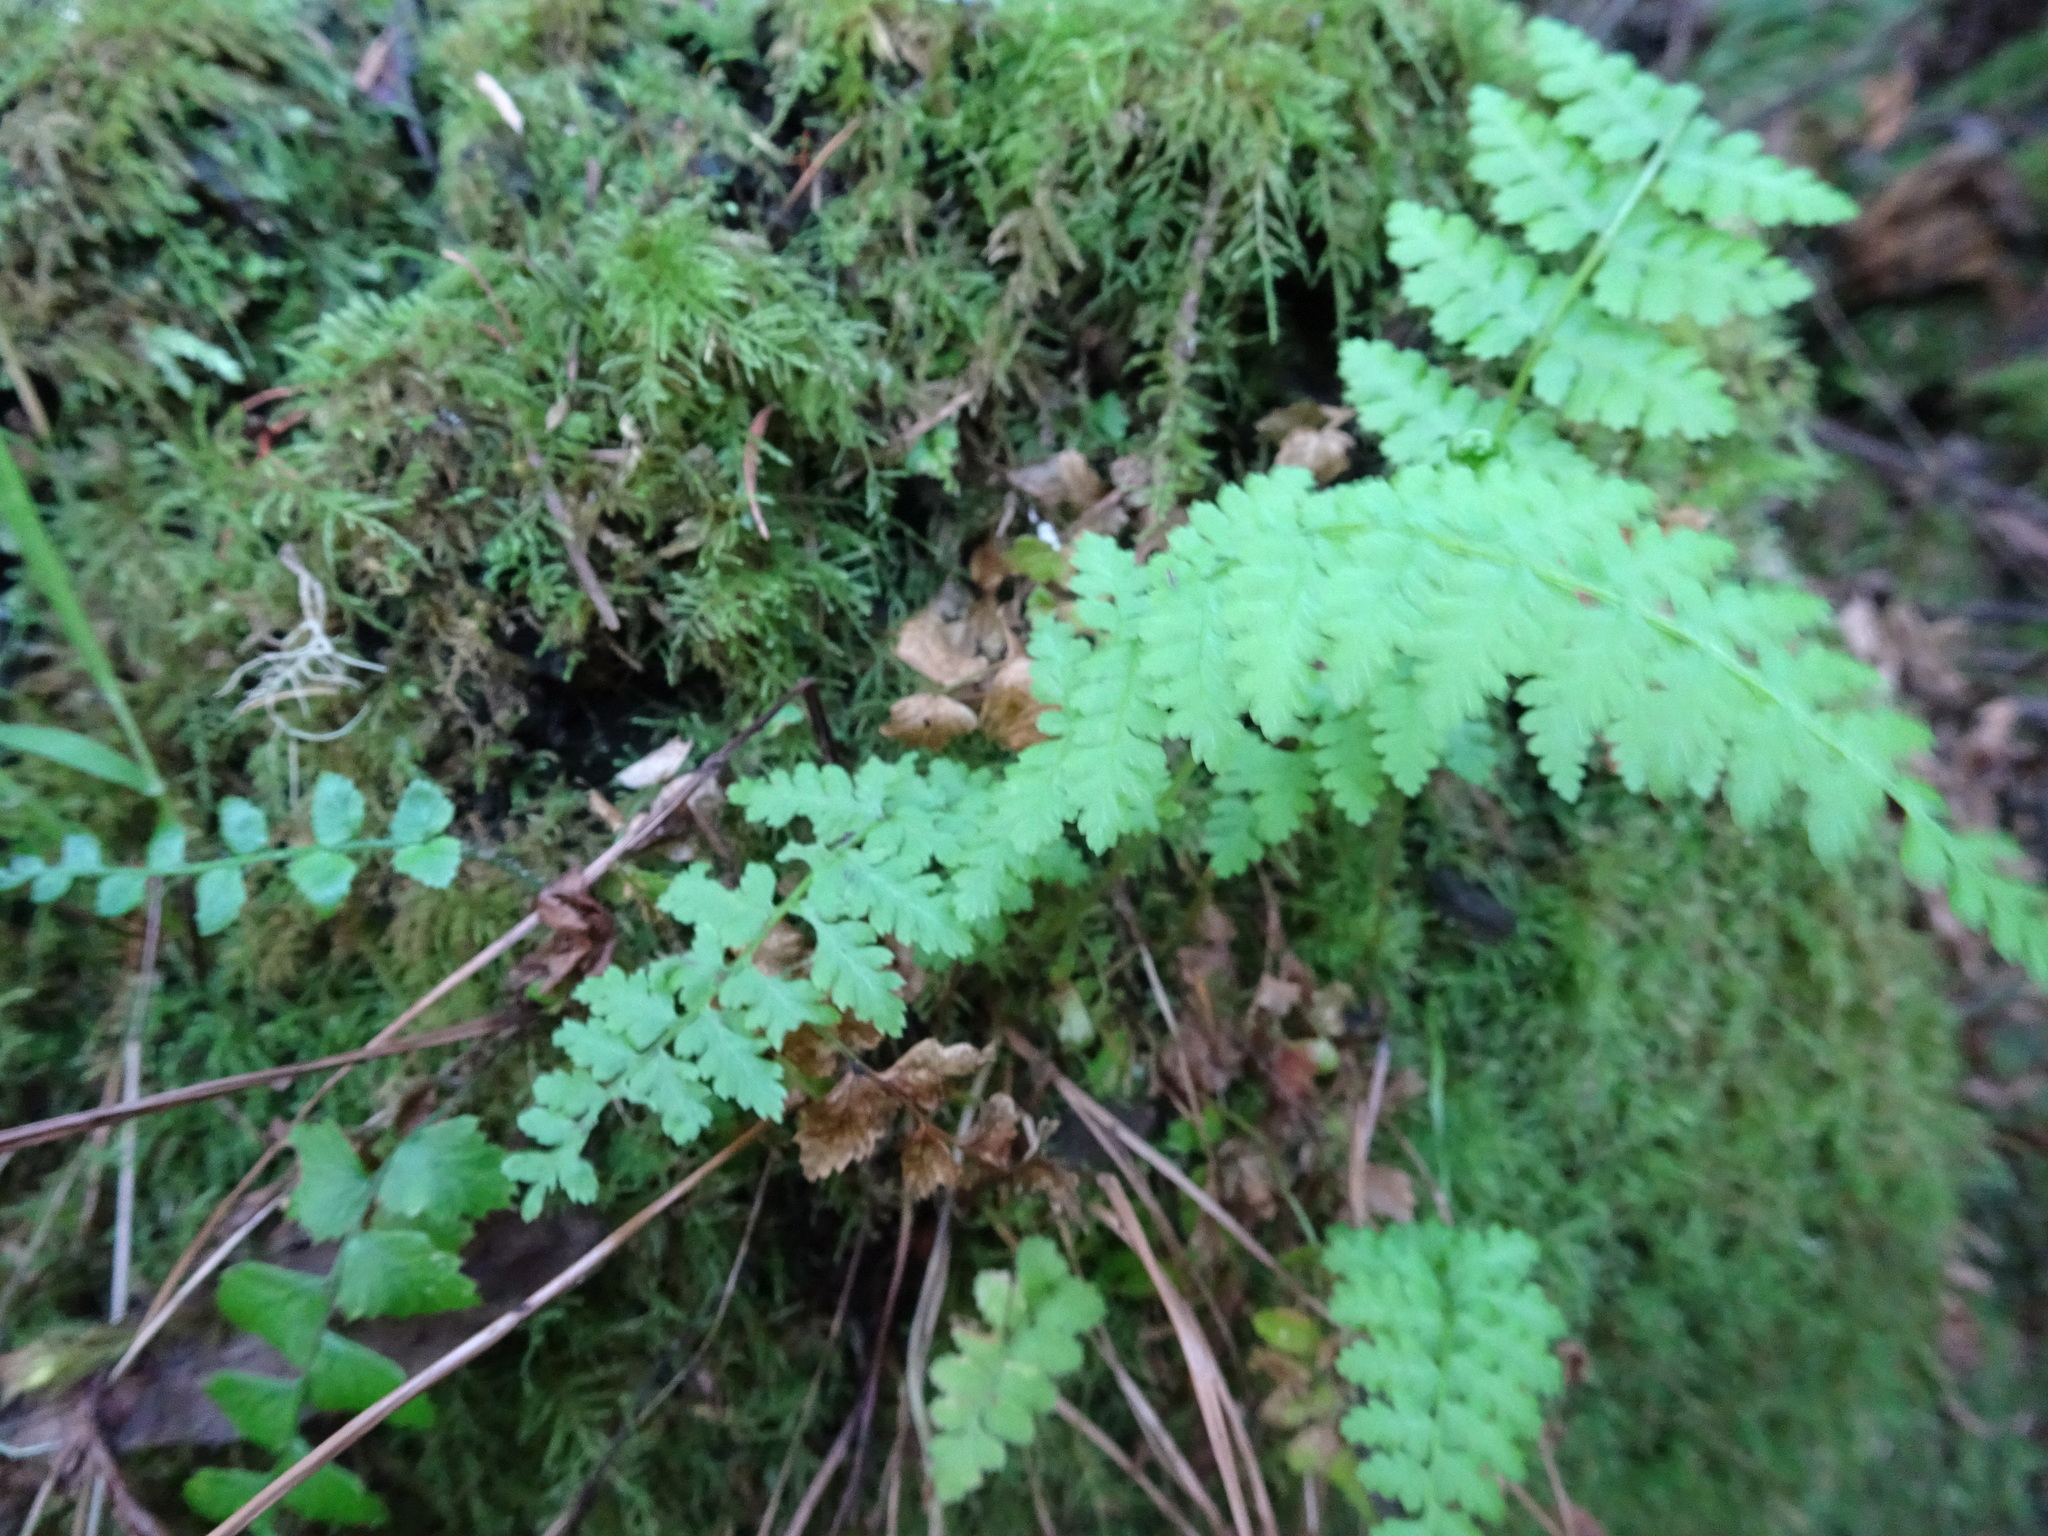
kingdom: Plantae
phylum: Tracheophyta
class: Polypodiopsida
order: Polypodiales
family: Cystopteridaceae
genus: Cystopteris
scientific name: Cystopteris fragilis
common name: Brittle bladder fern
